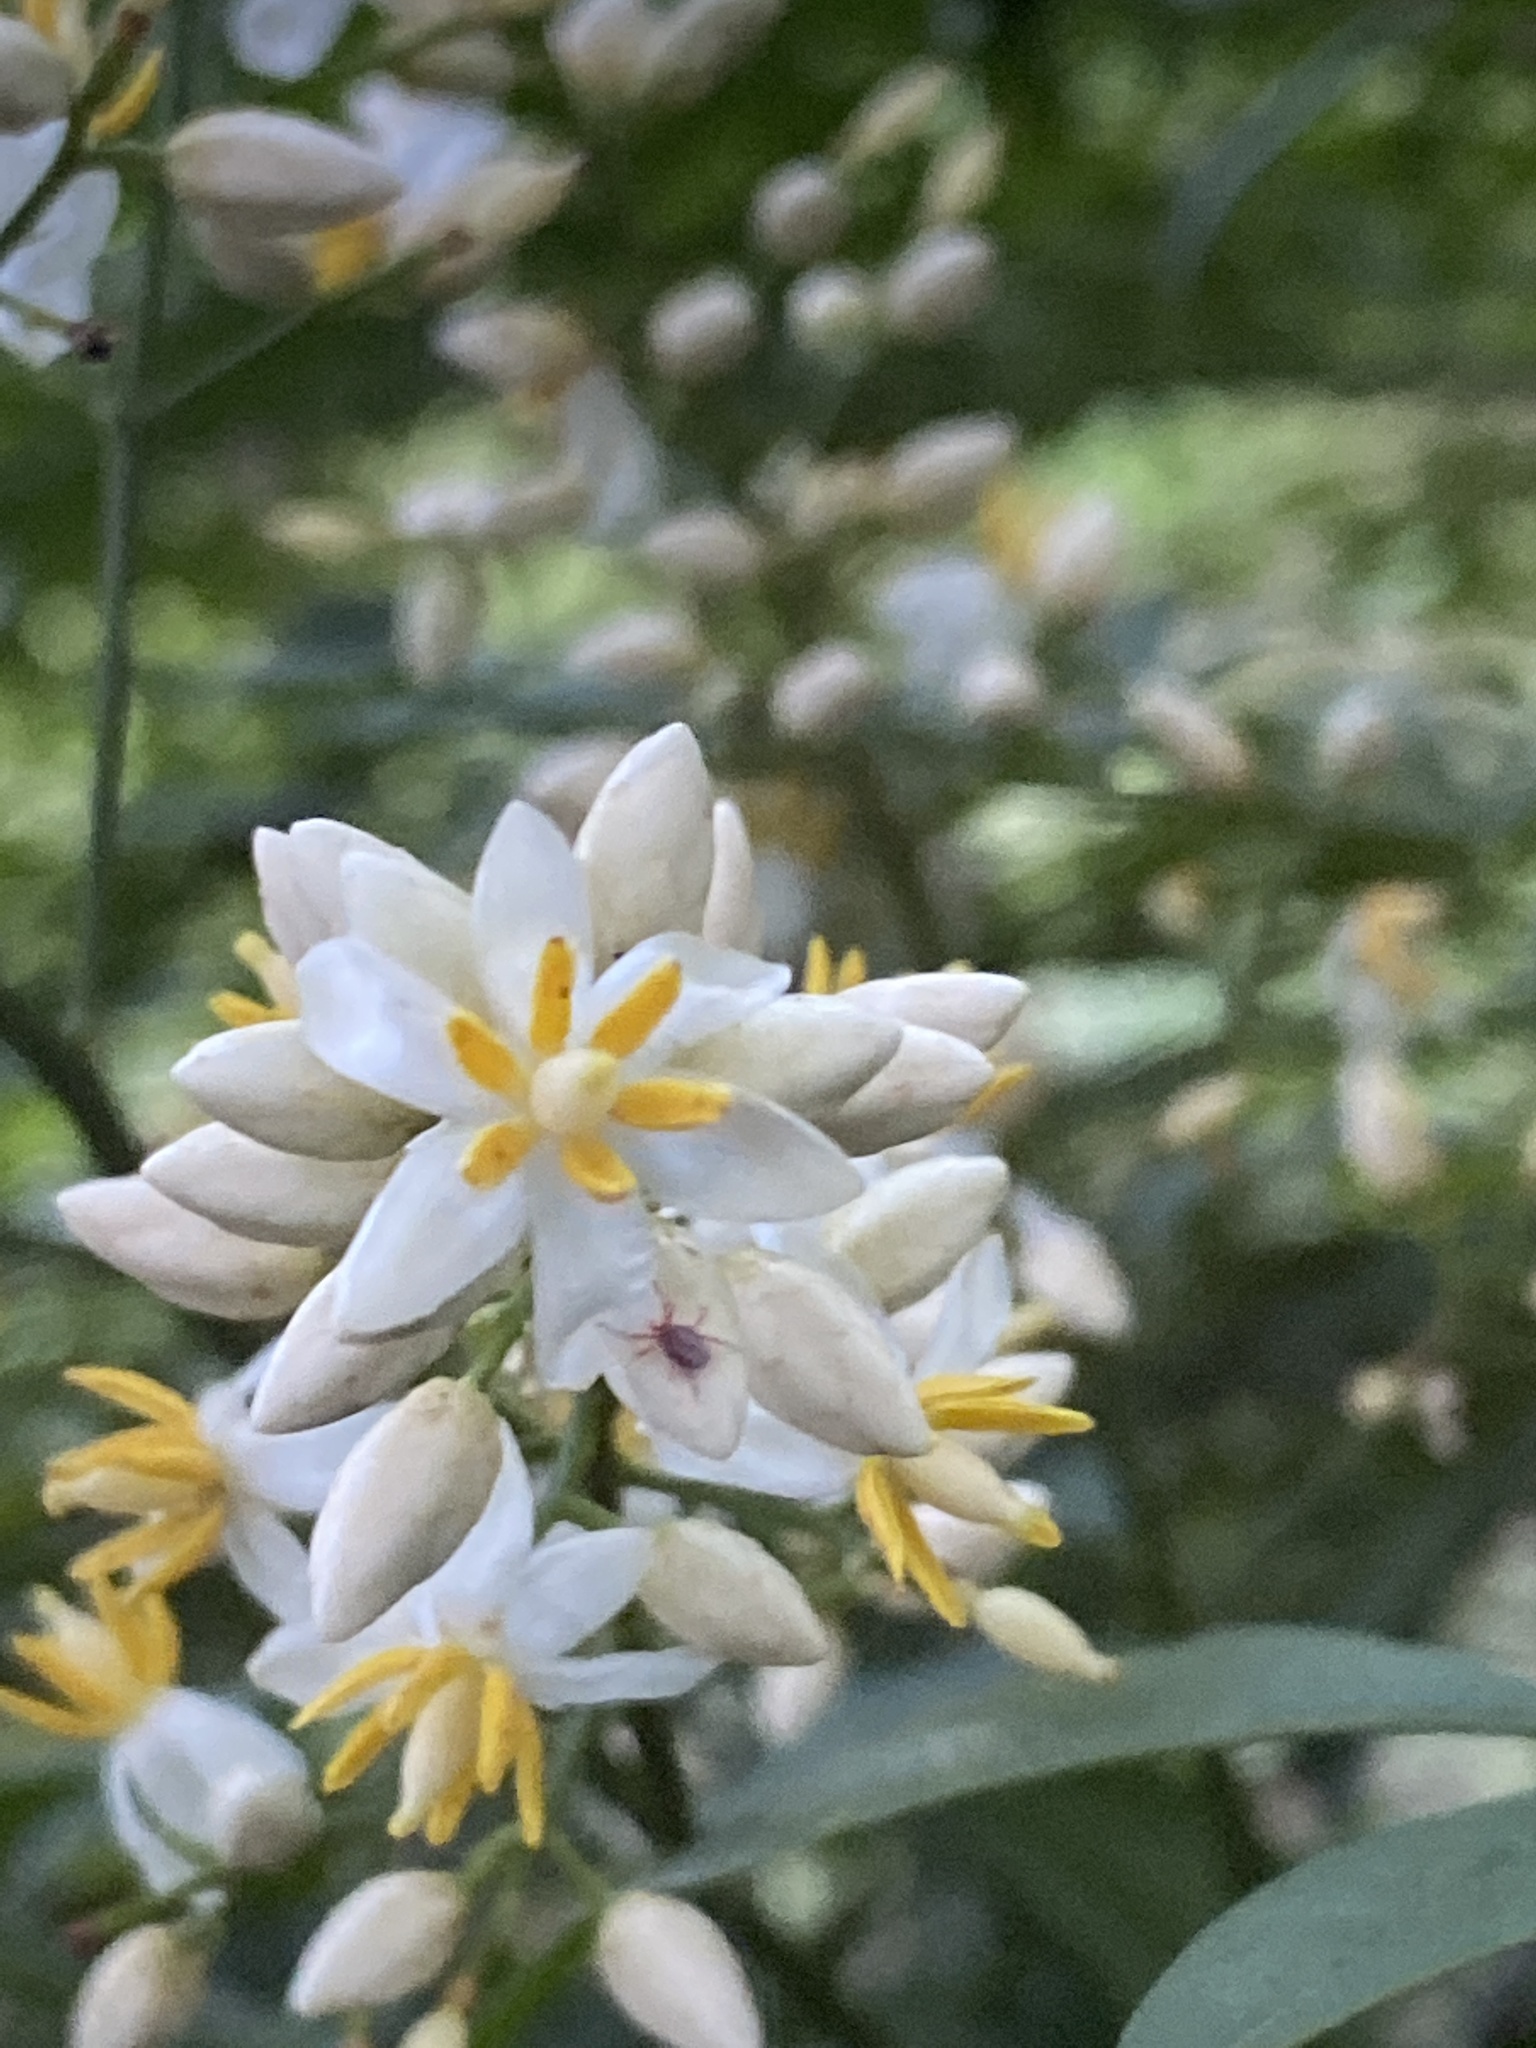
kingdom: Plantae
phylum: Tracheophyta
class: Magnoliopsida
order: Ranunculales
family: Berberidaceae
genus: Nandina
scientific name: Nandina domestica
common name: Sacred bamboo
